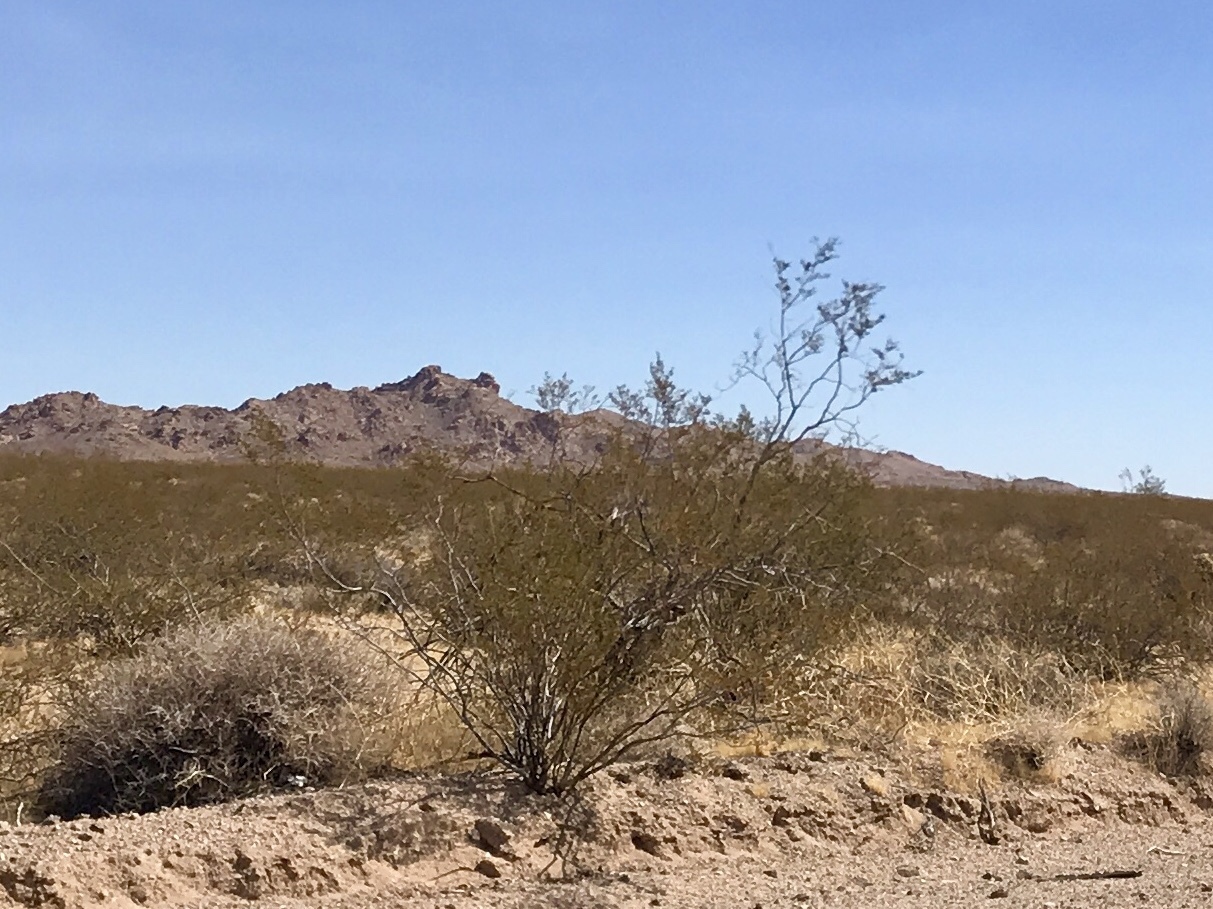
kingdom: Plantae
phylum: Tracheophyta
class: Magnoliopsida
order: Zygophyllales
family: Zygophyllaceae
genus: Larrea
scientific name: Larrea tridentata
